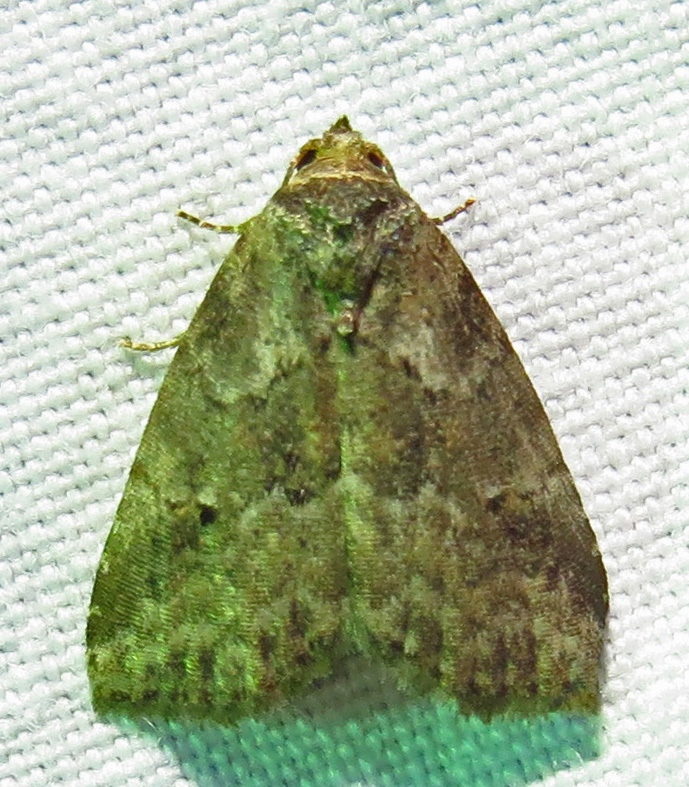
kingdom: Animalia
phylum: Arthropoda
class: Insecta
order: Lepidoptera
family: Erebidae
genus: Hyperstrotia
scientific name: Hyperstrotia nana
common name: White-lined graylet
